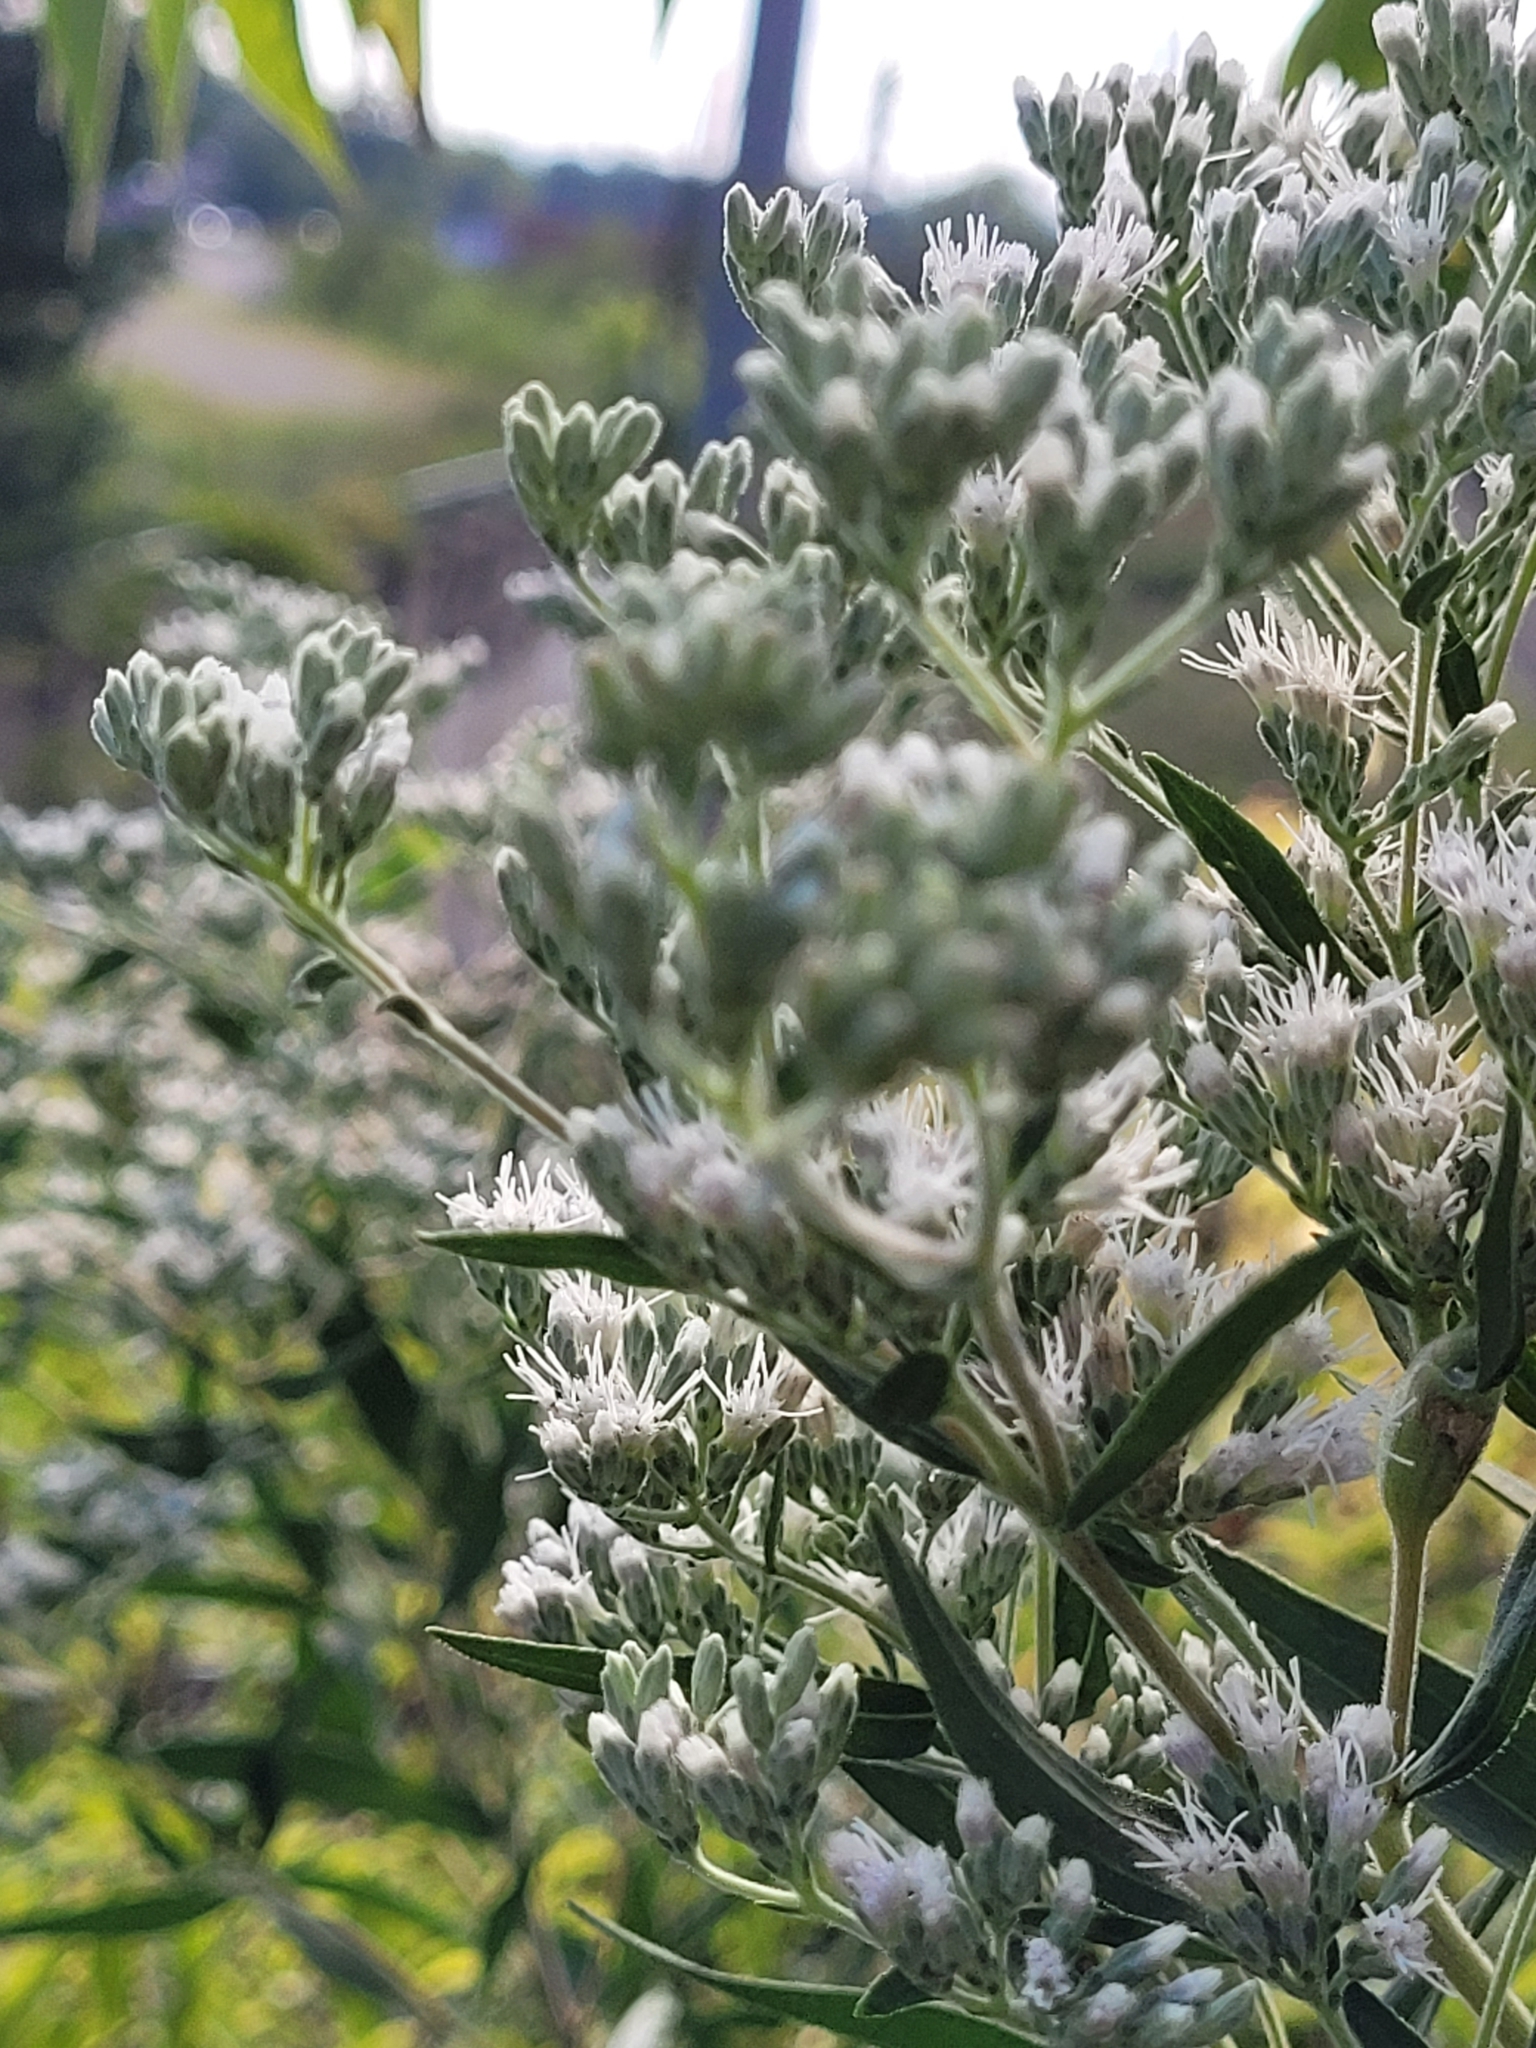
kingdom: Plantae
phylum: Tracheophyta
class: Magnoliopsida
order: Asterales
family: Asteraceae
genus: Eupatorium
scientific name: Eupatorium altissimum
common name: Tall thoroughwort
